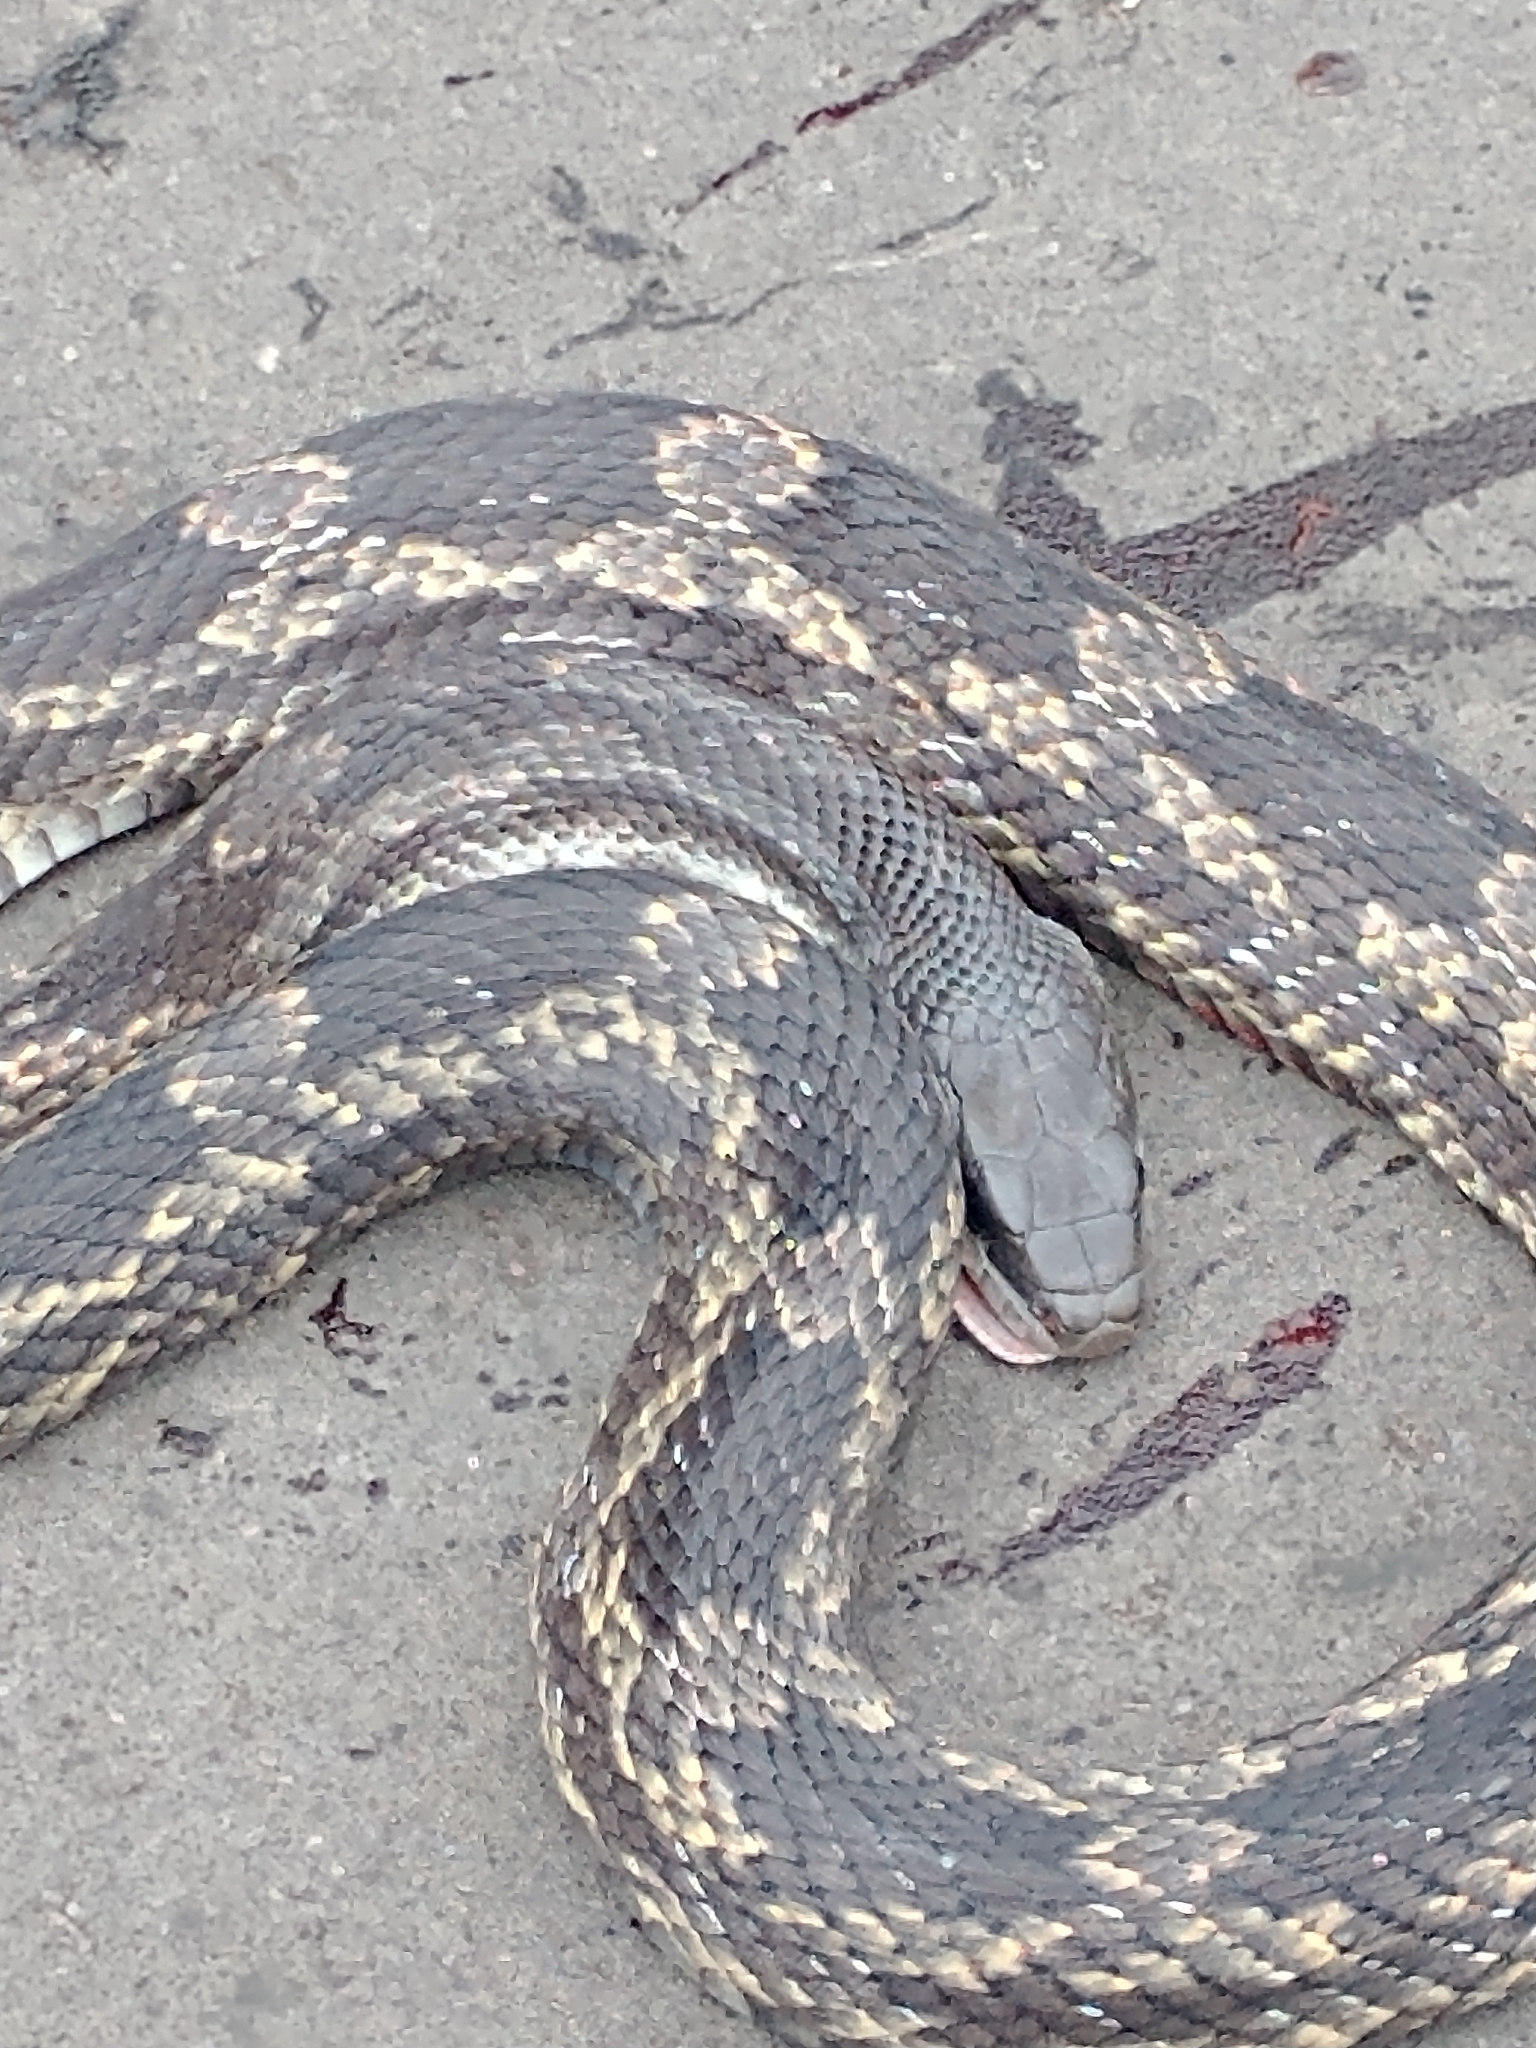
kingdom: Animalia
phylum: Chordata
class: Squamata
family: Colubridae
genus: Pantherophis
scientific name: Pantherophis obsoletus
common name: Black rat snake
